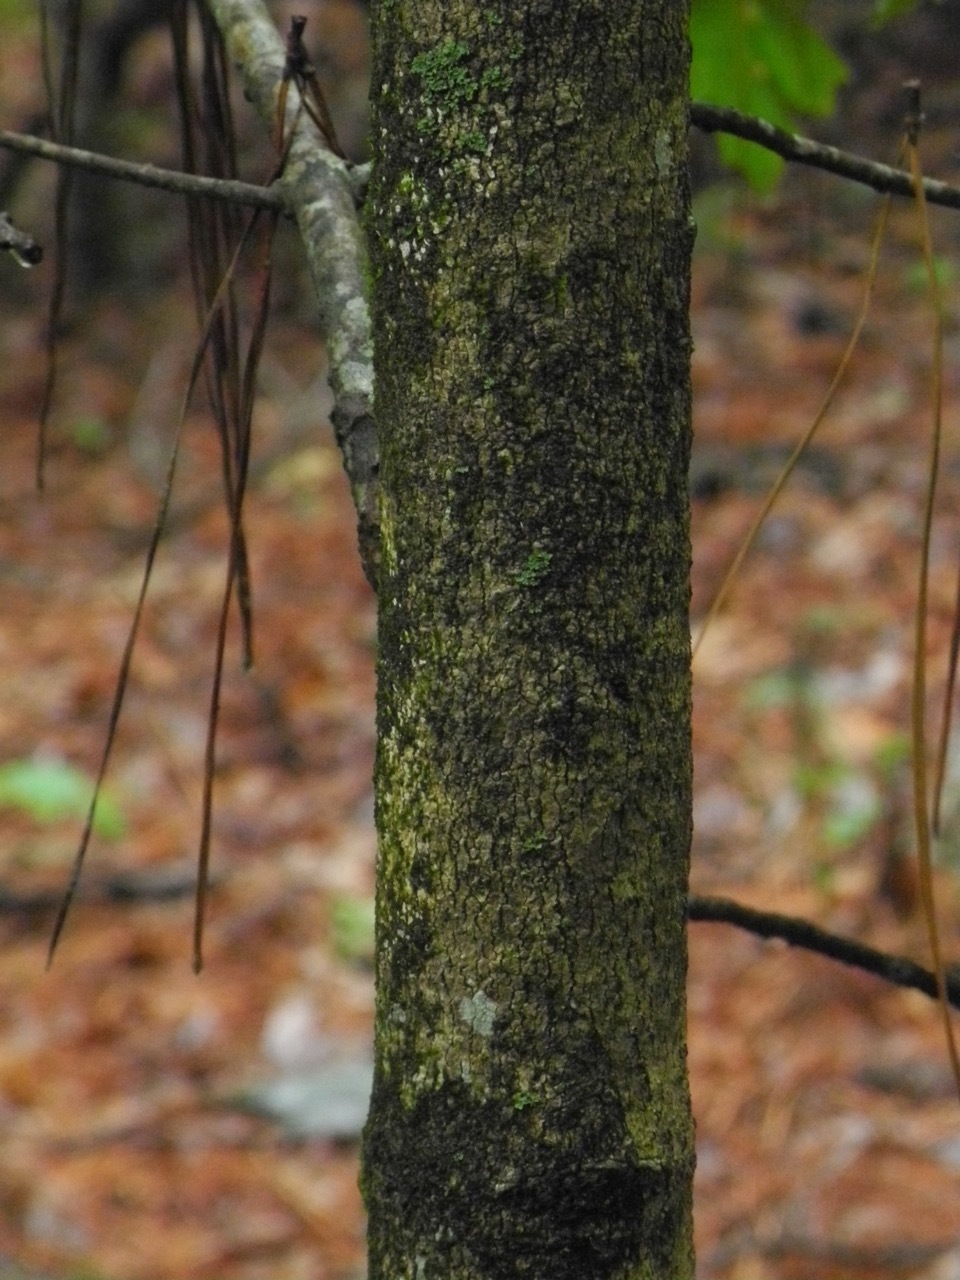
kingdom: Plantae
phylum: Tracheophyta
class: Magnoliopsida
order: Sapindales
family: Sapindaceae
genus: Acer
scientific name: Acer floridanum
